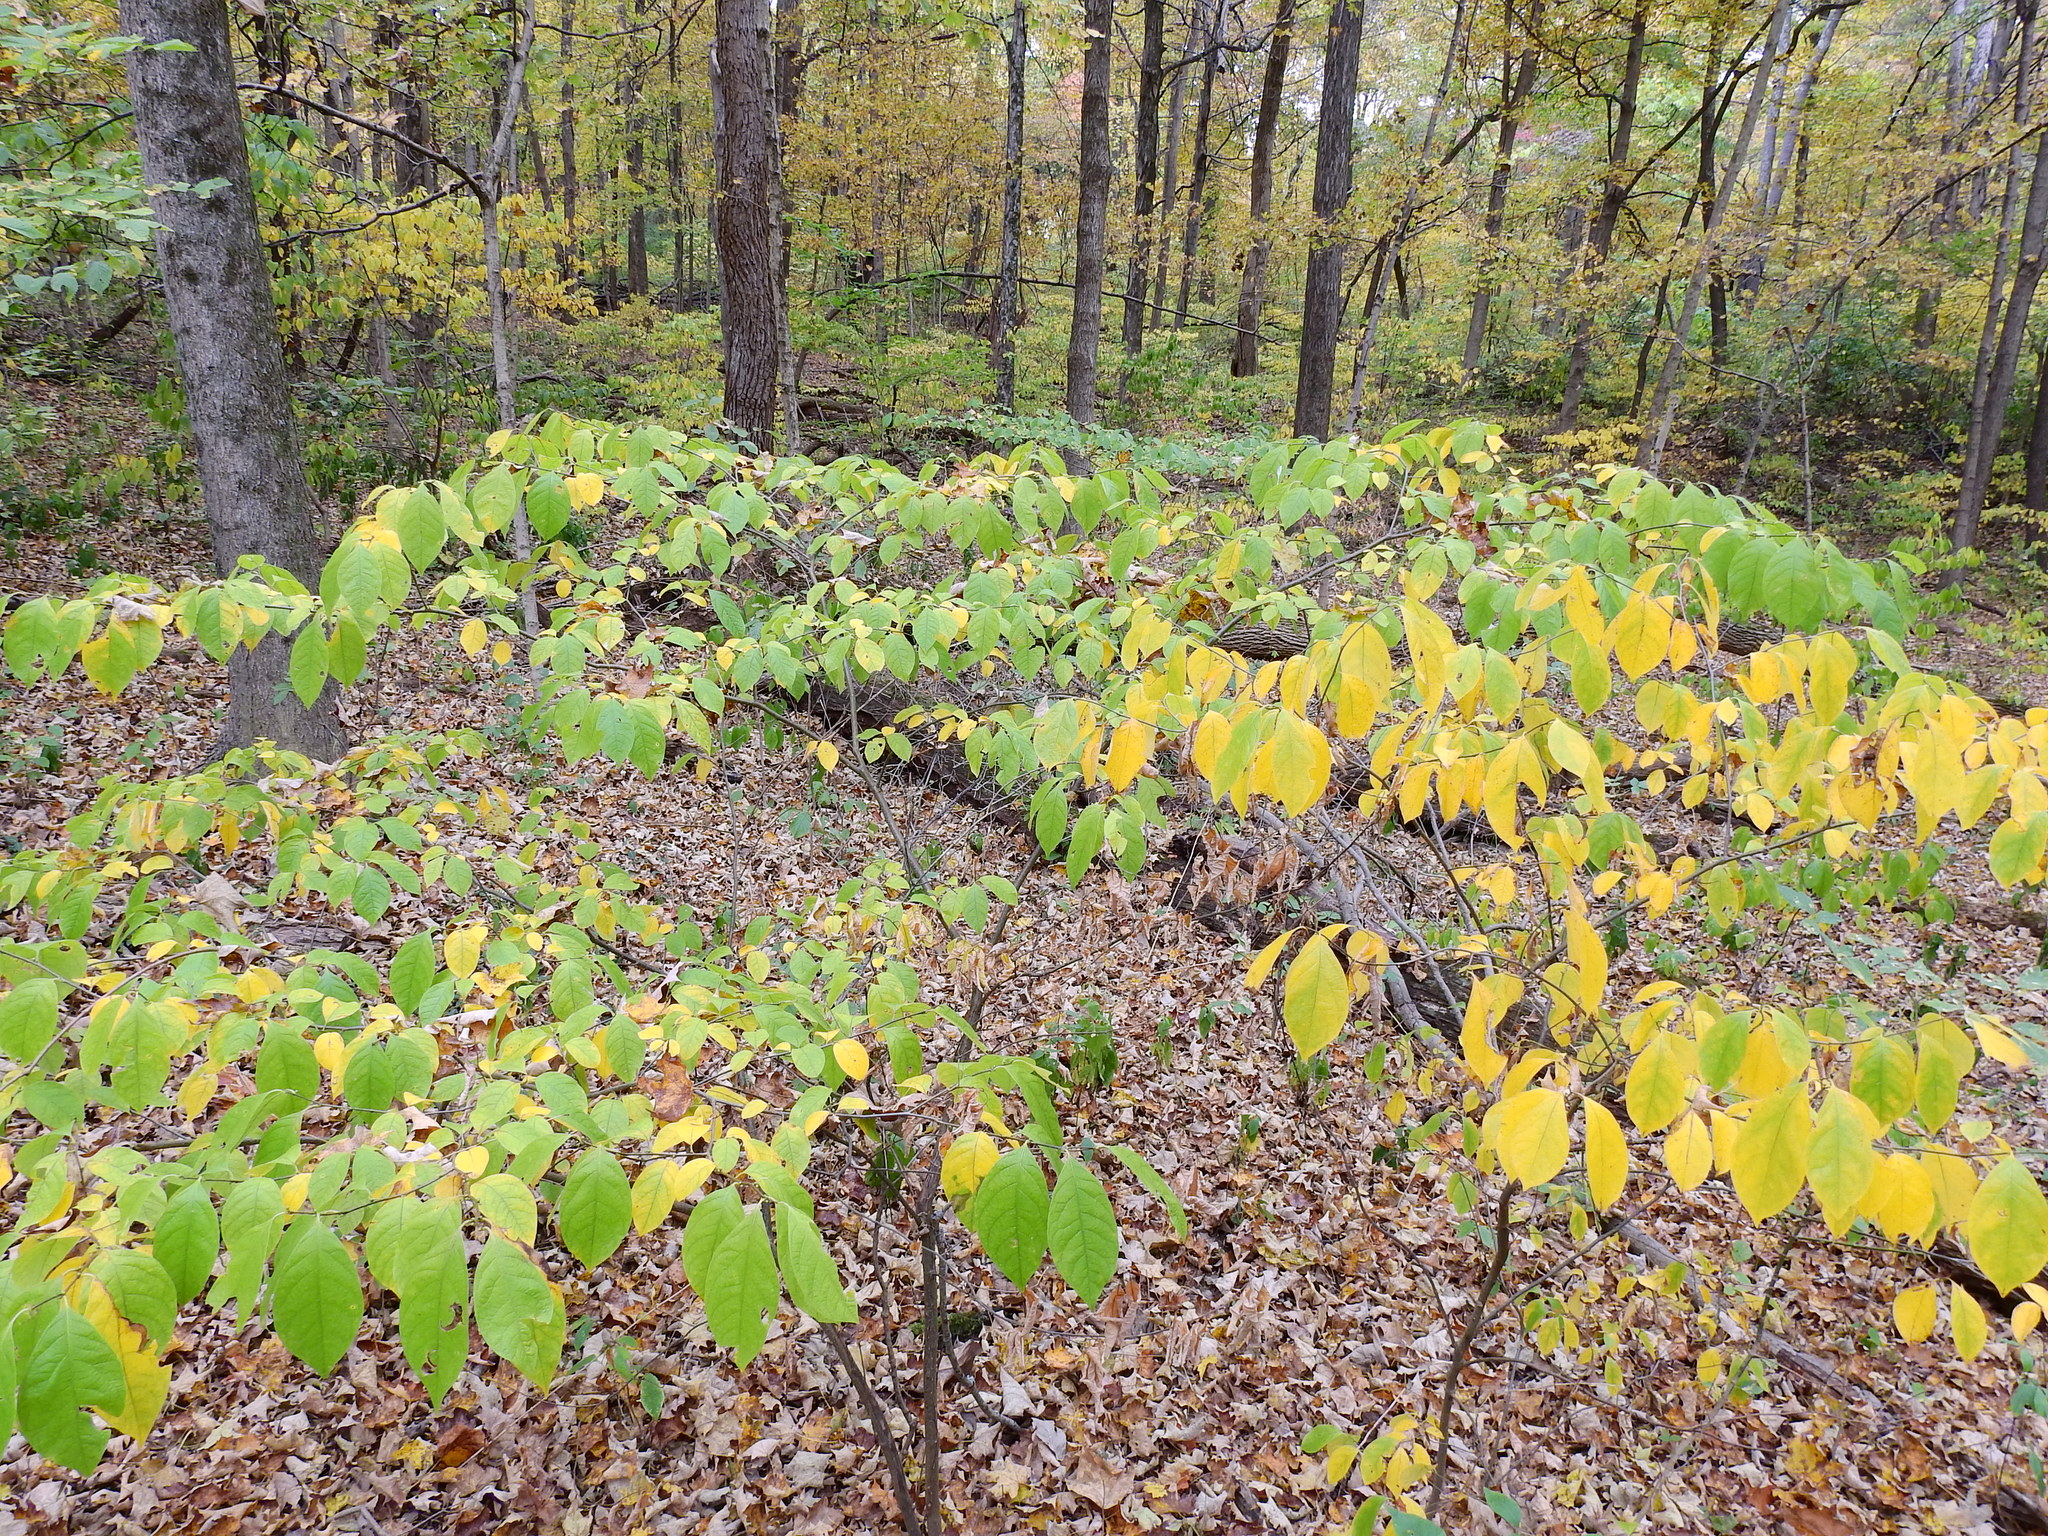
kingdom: Plantae
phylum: Tracheophyta
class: Magnoliopsida
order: Laurales
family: Lauraceae
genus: Lindera
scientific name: Lindera benzoin
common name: Spicebush
